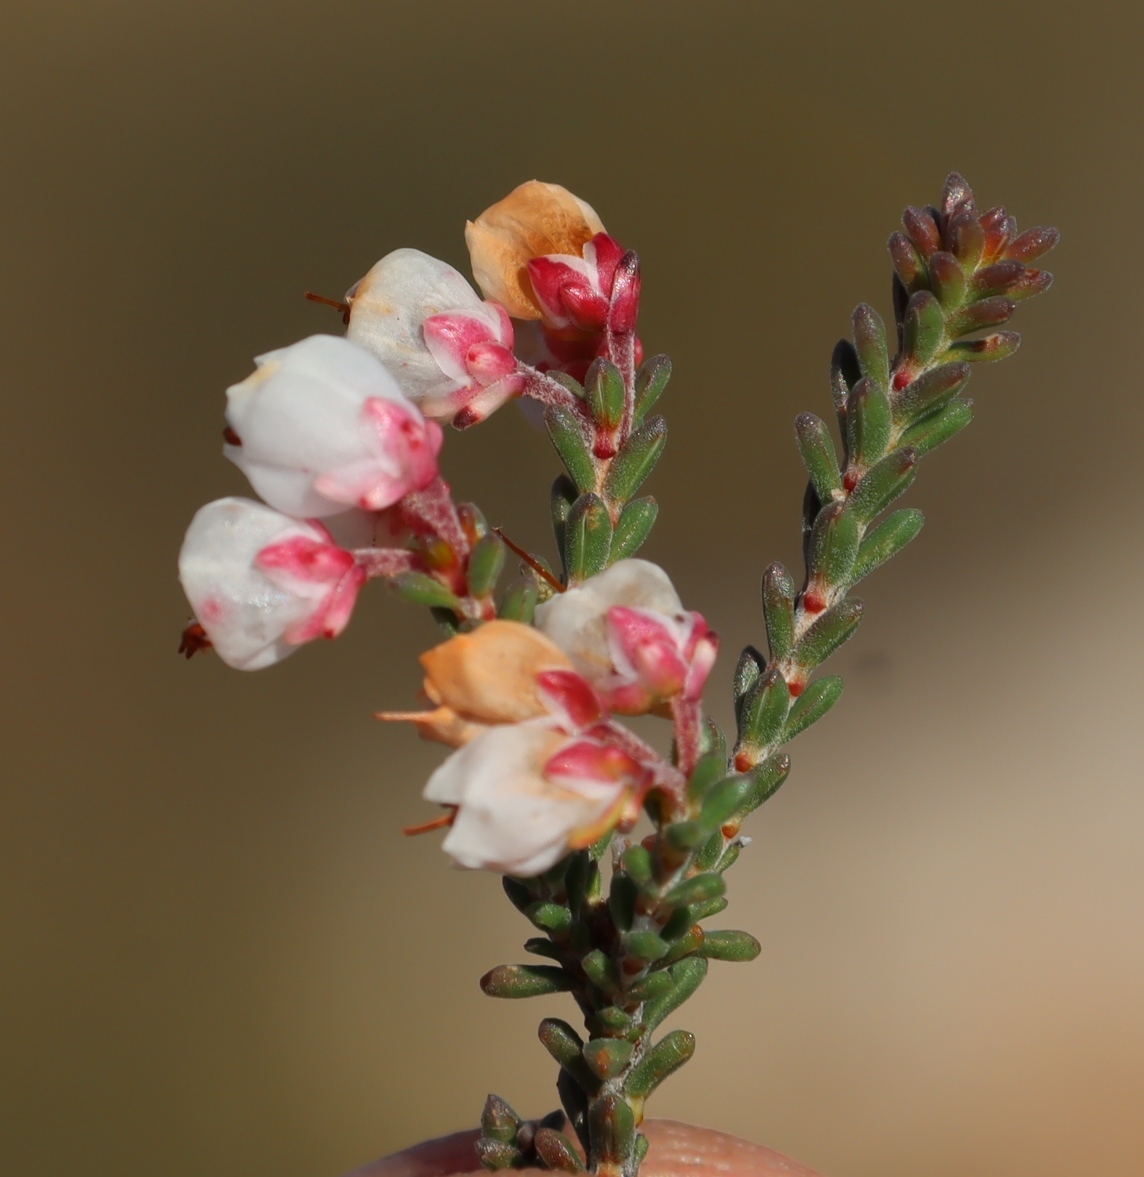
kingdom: Plantae
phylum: Tracheophyta
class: Magnoliopsida
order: Ericales
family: Ericaceae
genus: Erica
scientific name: Erica umbelliflora
